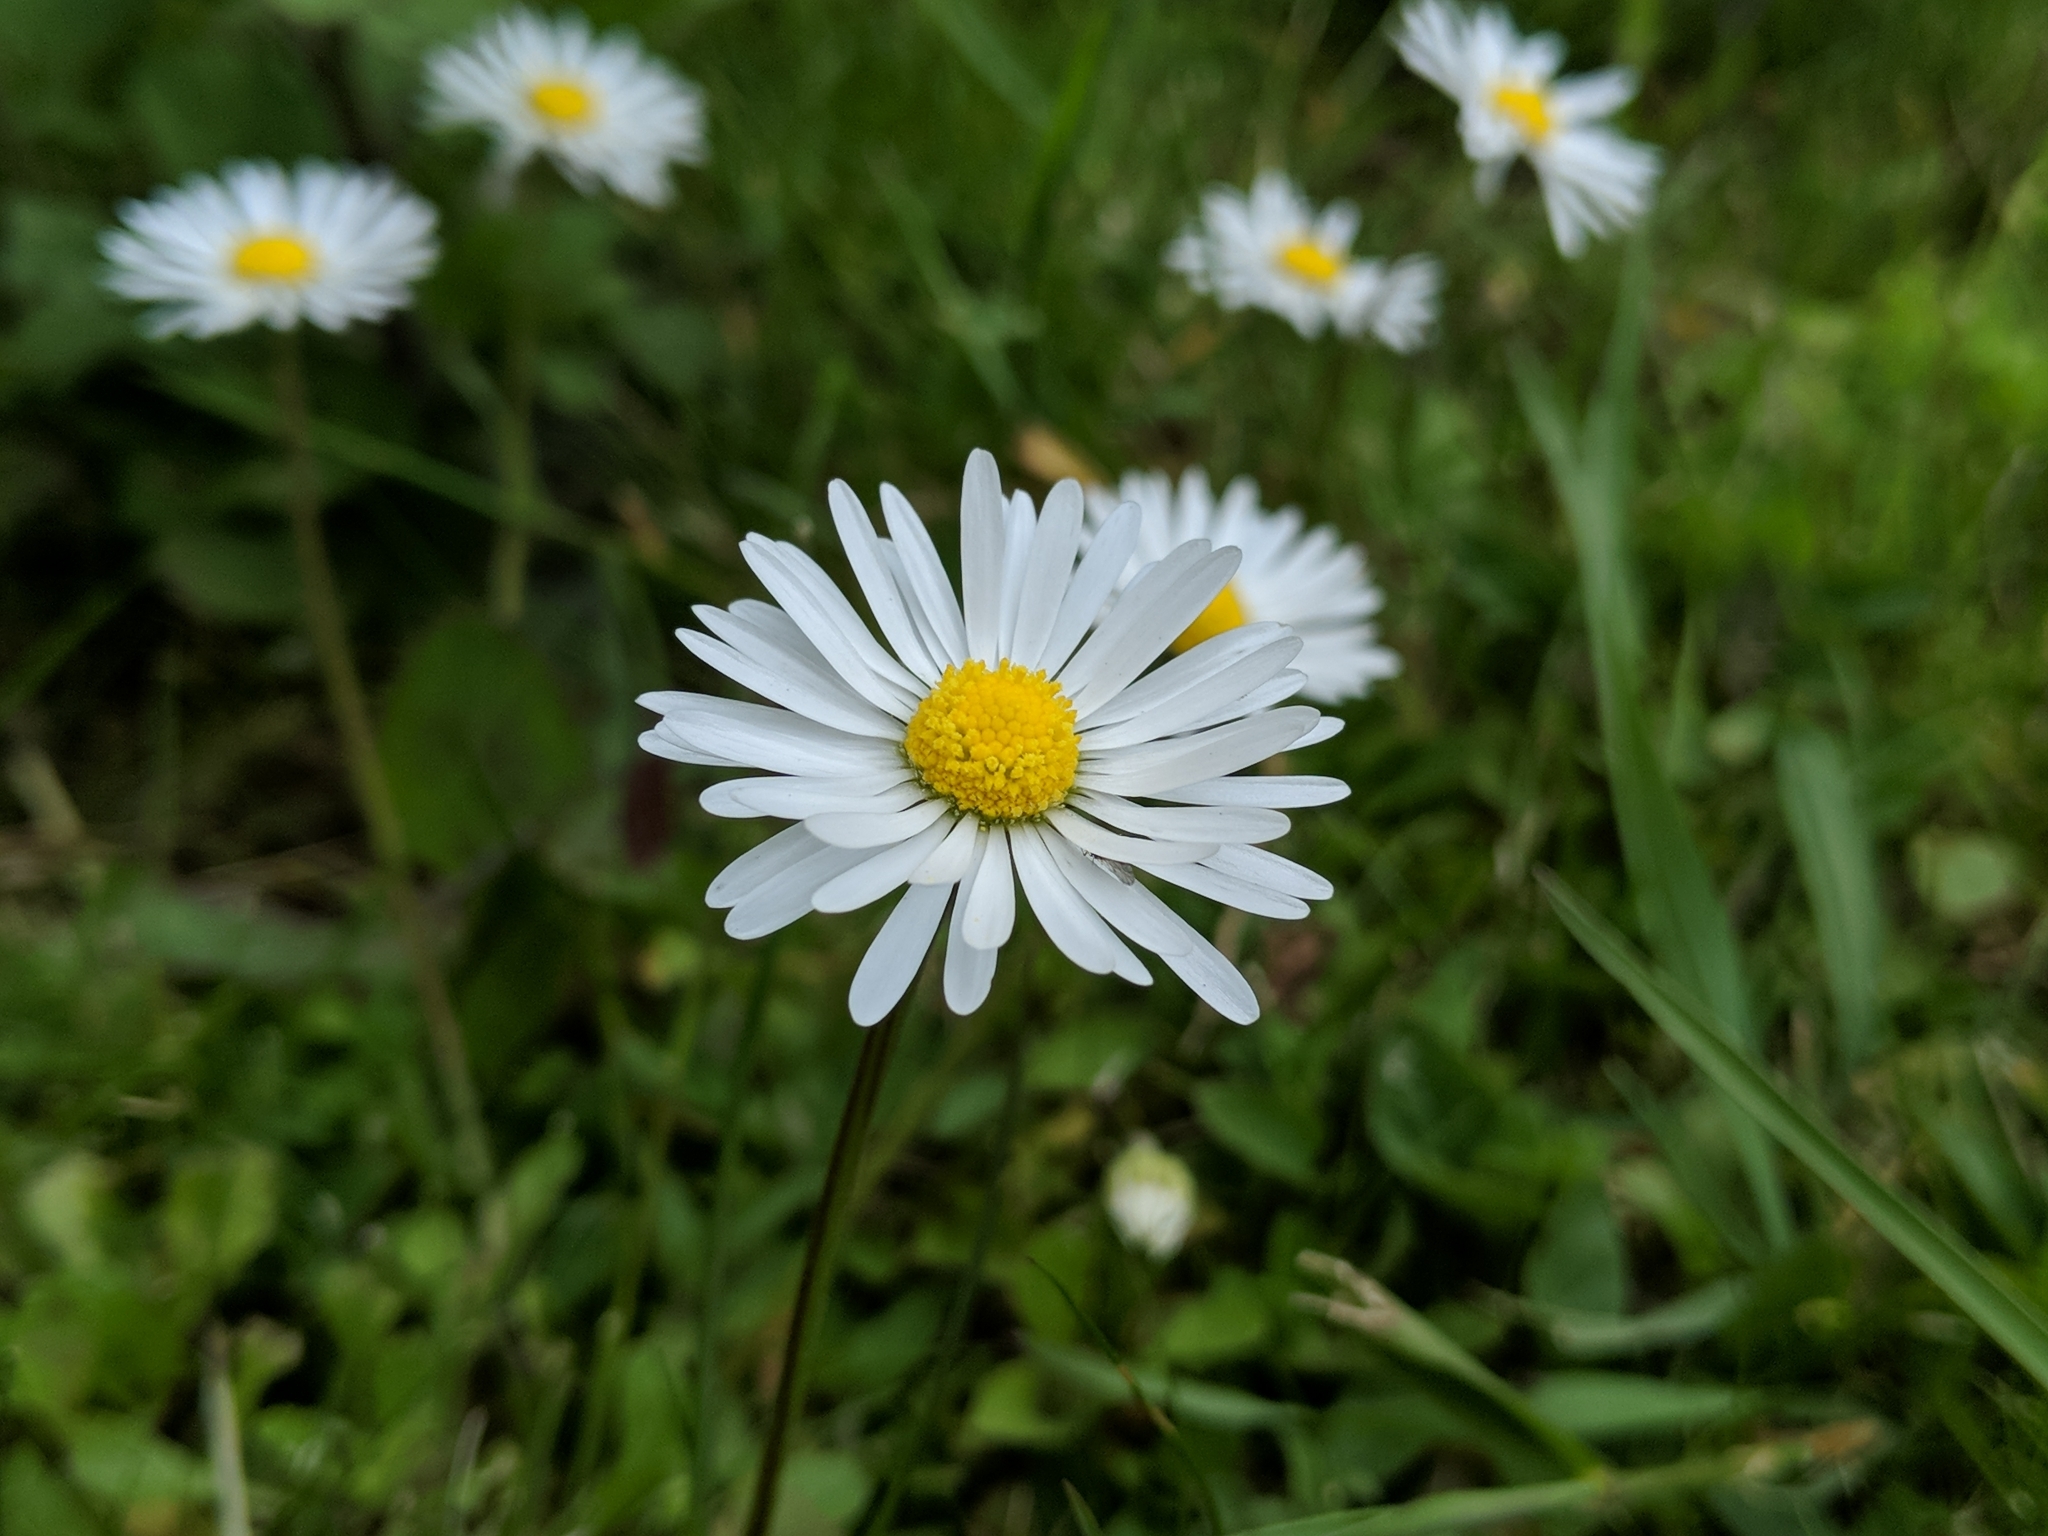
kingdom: Plantae
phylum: Tracheophyta
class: Magnoliopsida
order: Asterales
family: Asteraceae
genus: Bellis
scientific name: Bellis perennis
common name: Lawndaisy
